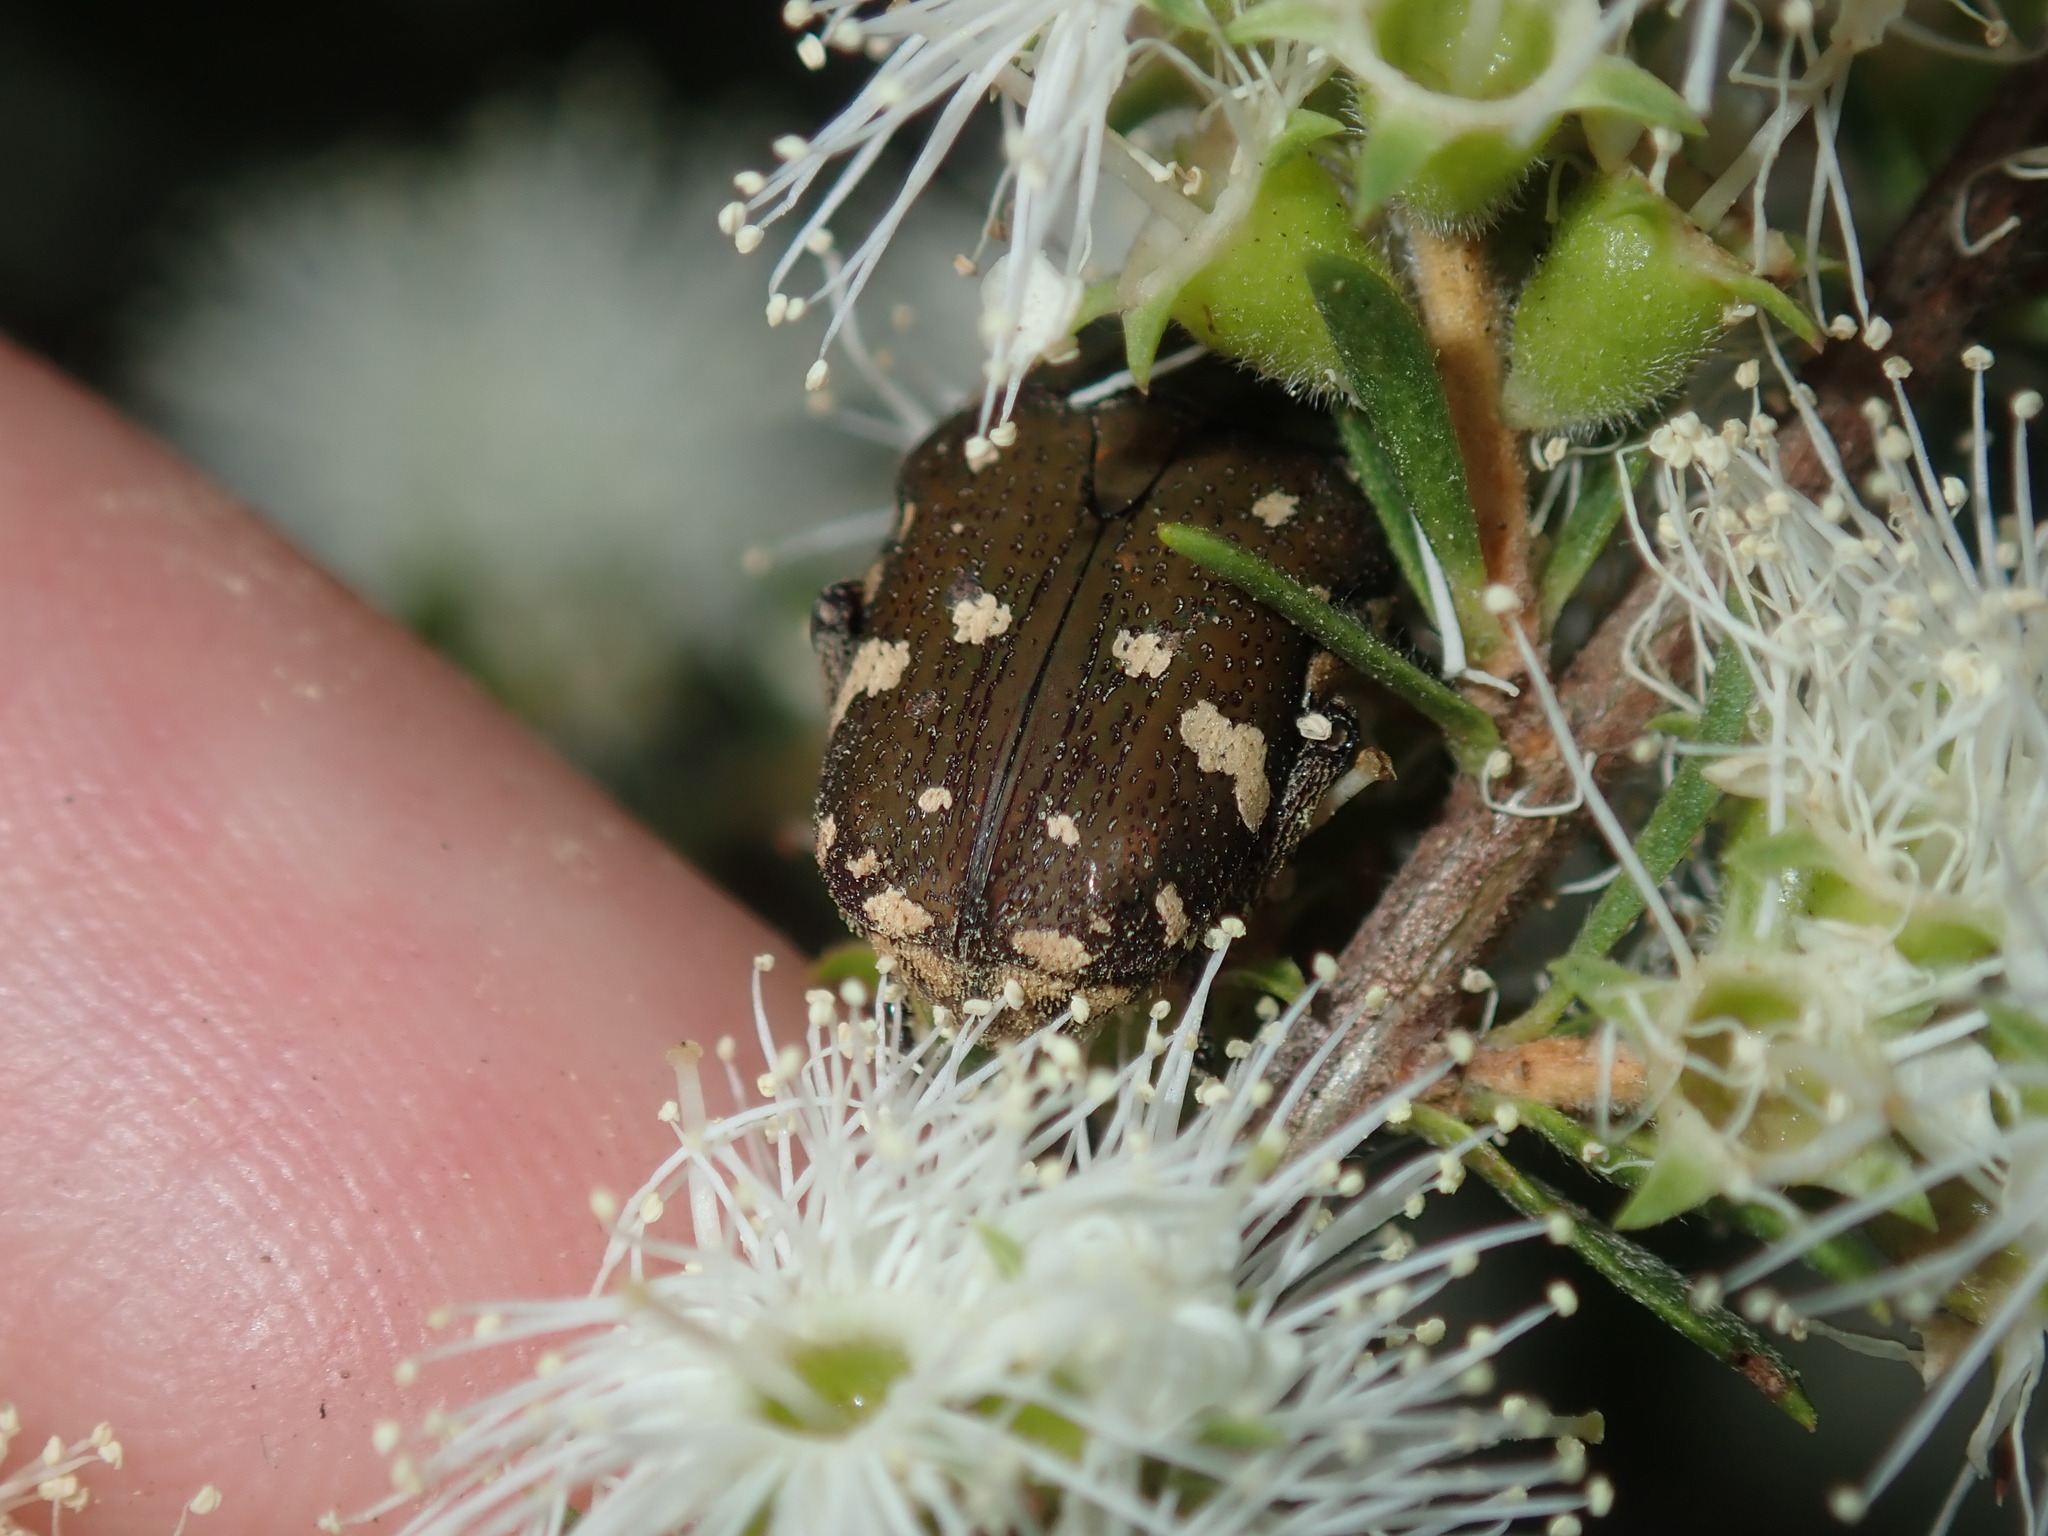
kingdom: Animalia
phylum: Arthropoda
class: Insecta
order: Coleoptera
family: Scarabaeidae
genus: Glycyphana
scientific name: Glycyphana stolata
